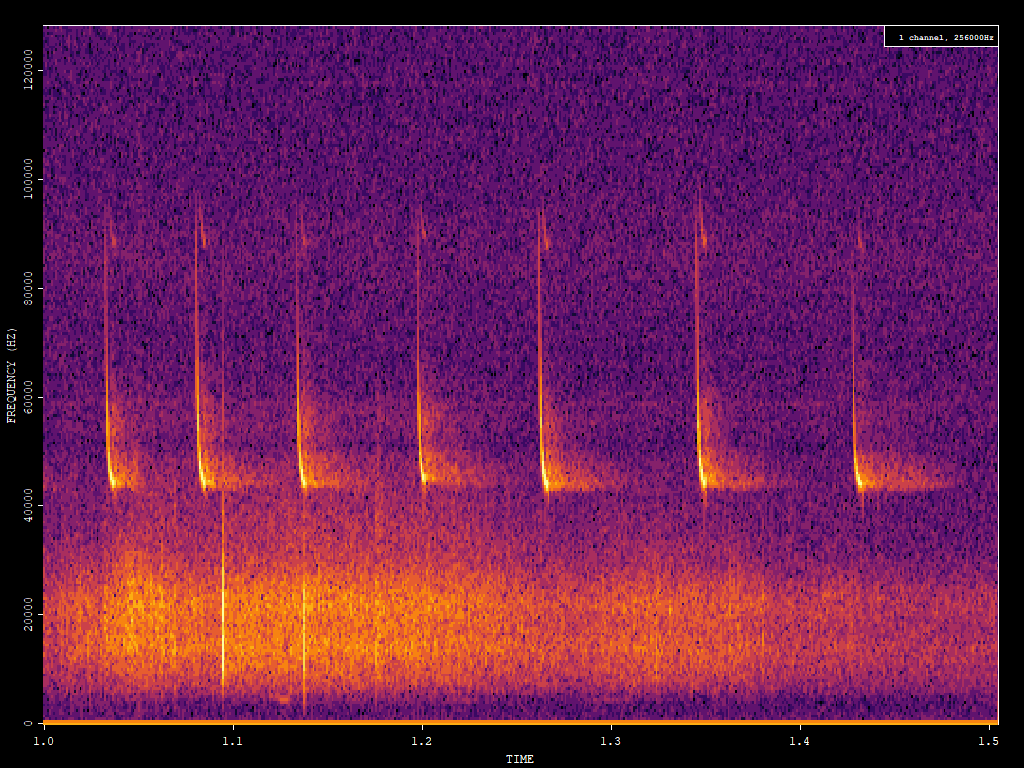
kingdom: Animalia
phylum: Chordata
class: Mammalia
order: Chiroptera
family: Vespertilionidae
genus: Pipistrellus
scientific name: Pipistrellus pipistrellus
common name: Common pipistrelle
